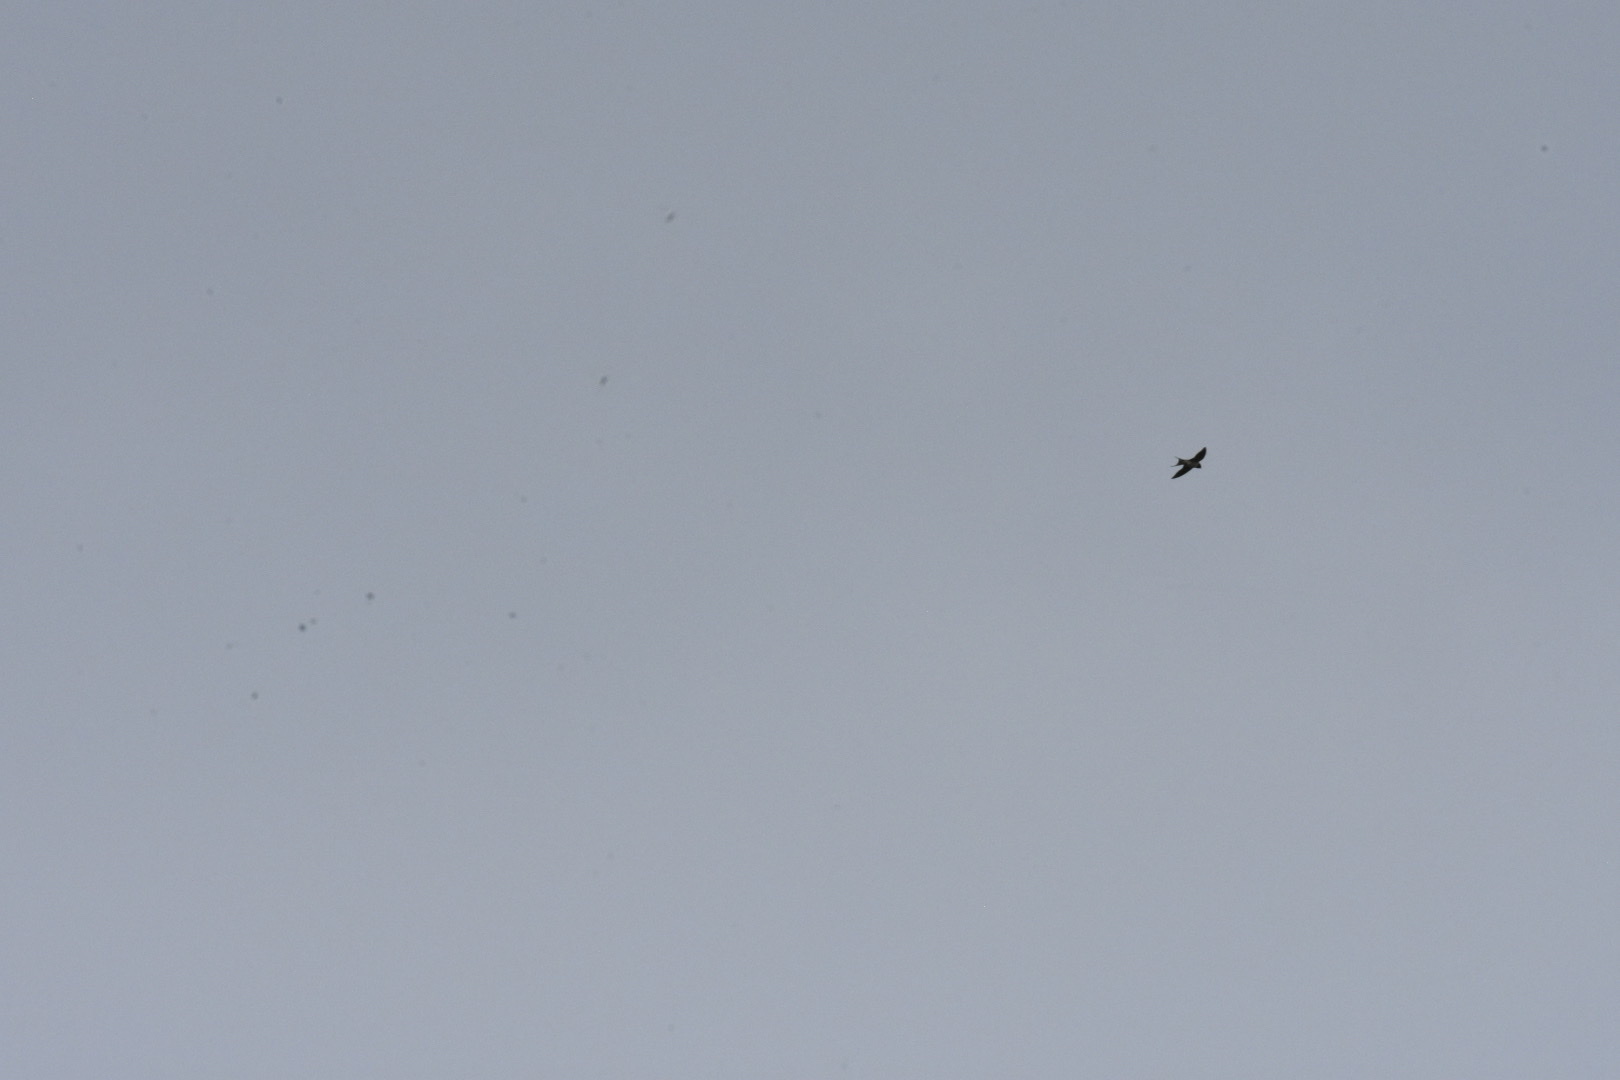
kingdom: Animalia
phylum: Chordata
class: Aves
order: Passeriformes
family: Hirundinidae
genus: Hirundo
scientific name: Hirundo rustica
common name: Barn swallow
